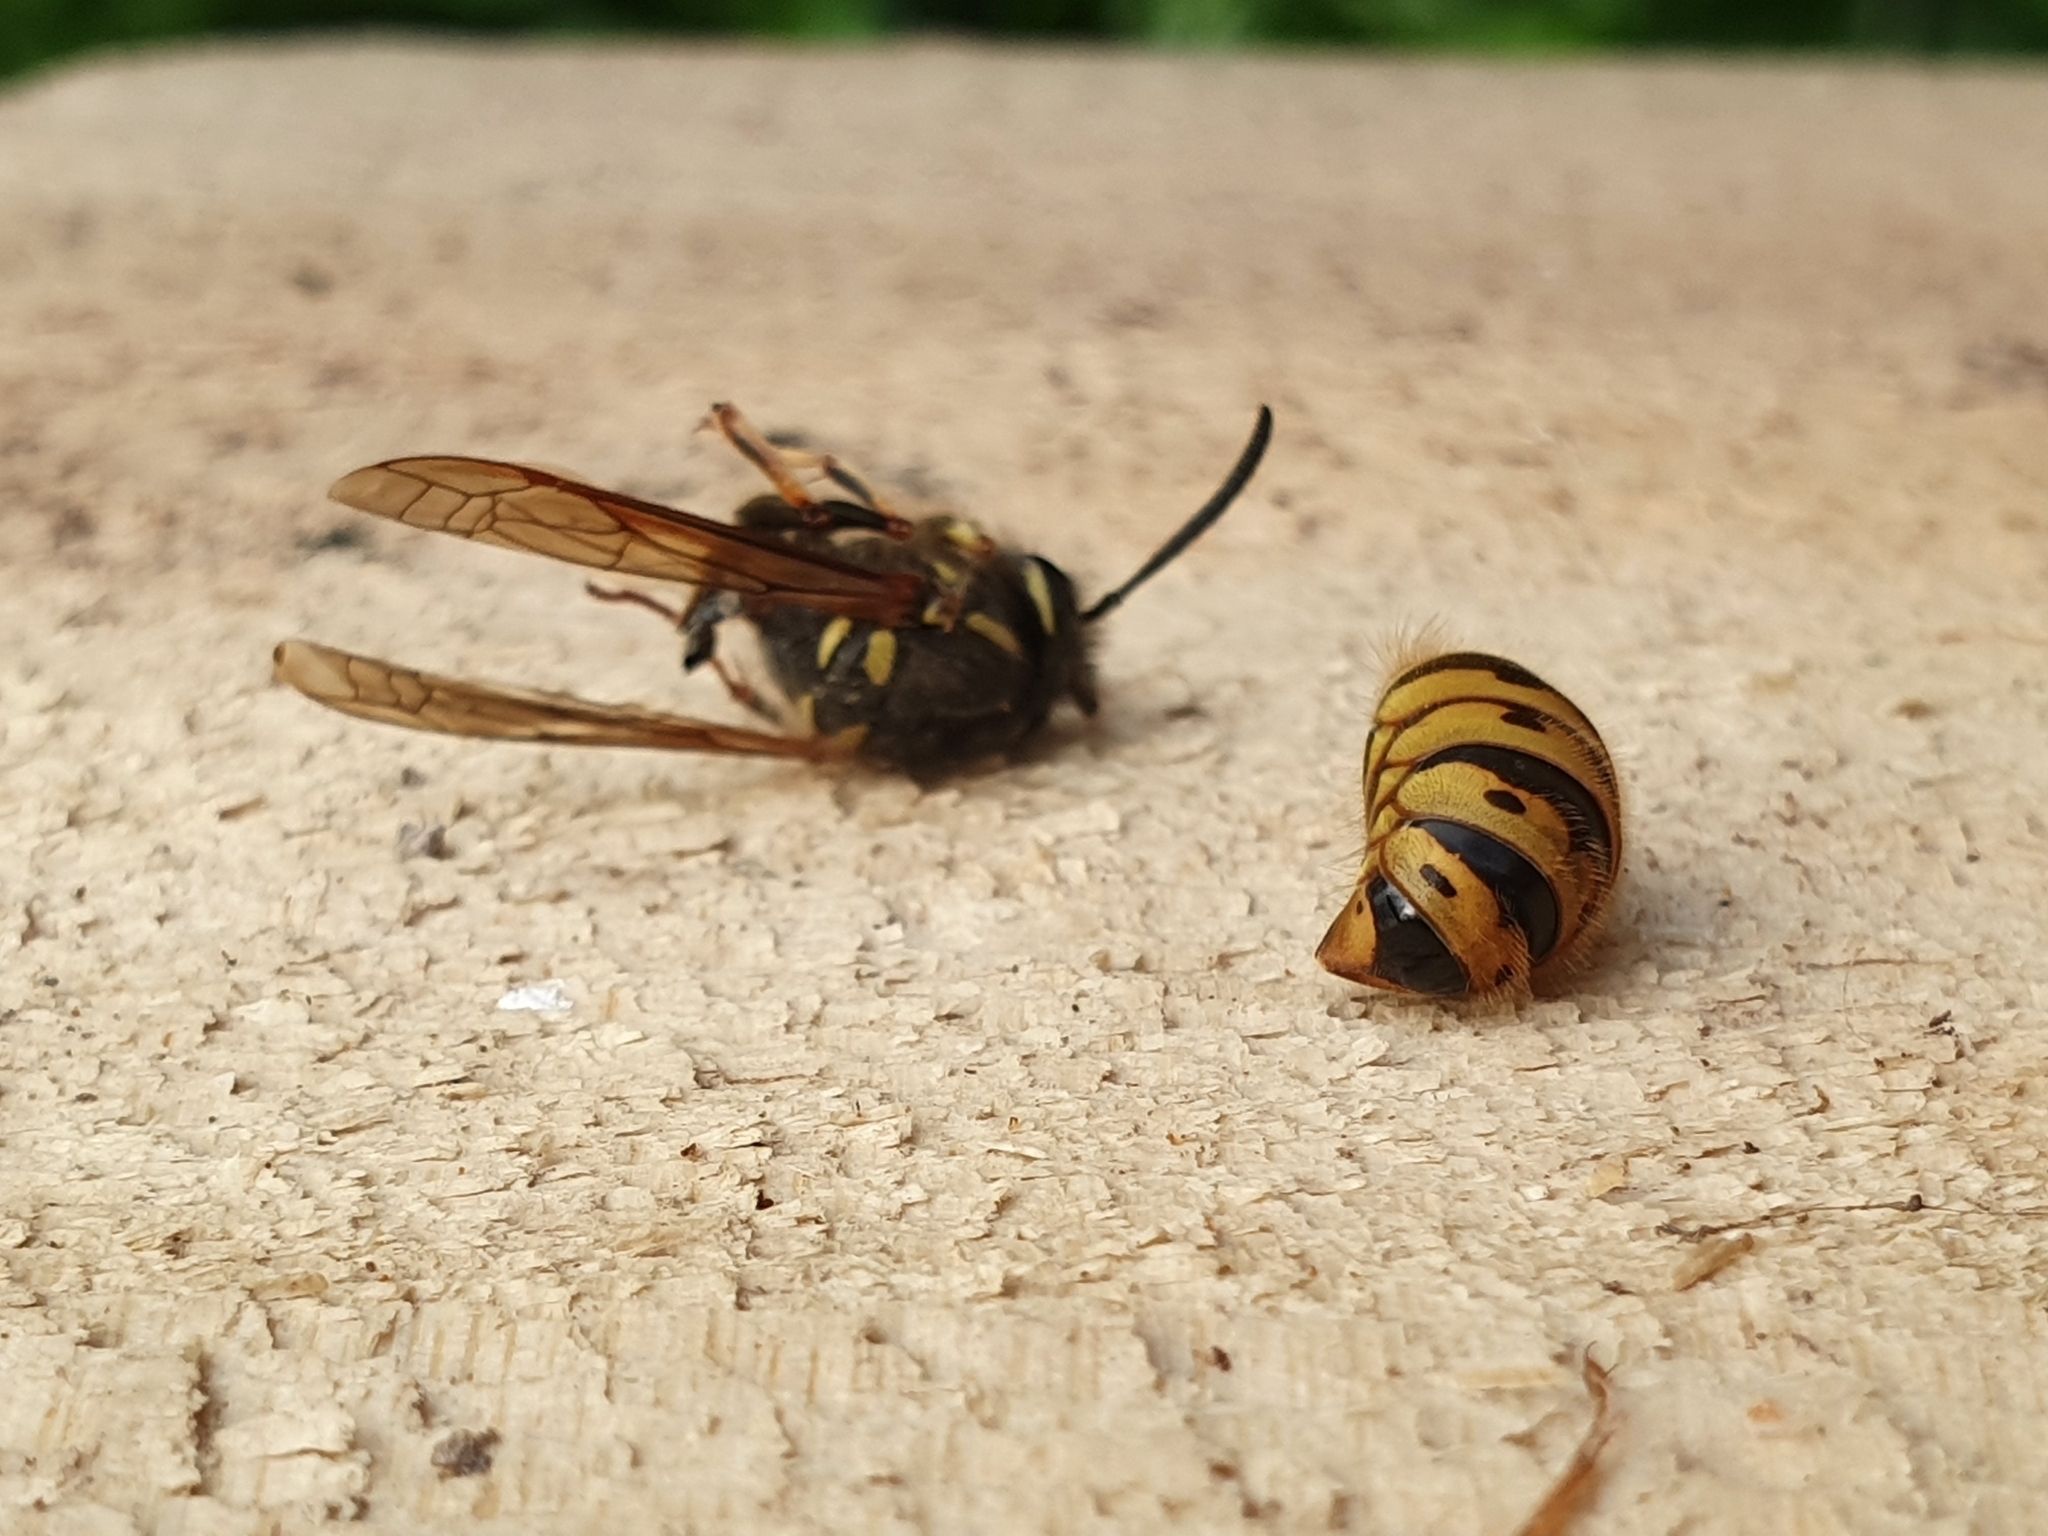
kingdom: Animalia
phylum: Arthropoda
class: Insecta
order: Hymenoptera
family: Vespidae
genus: Vespula
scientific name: Vespula vulgaris
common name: Common wasp
